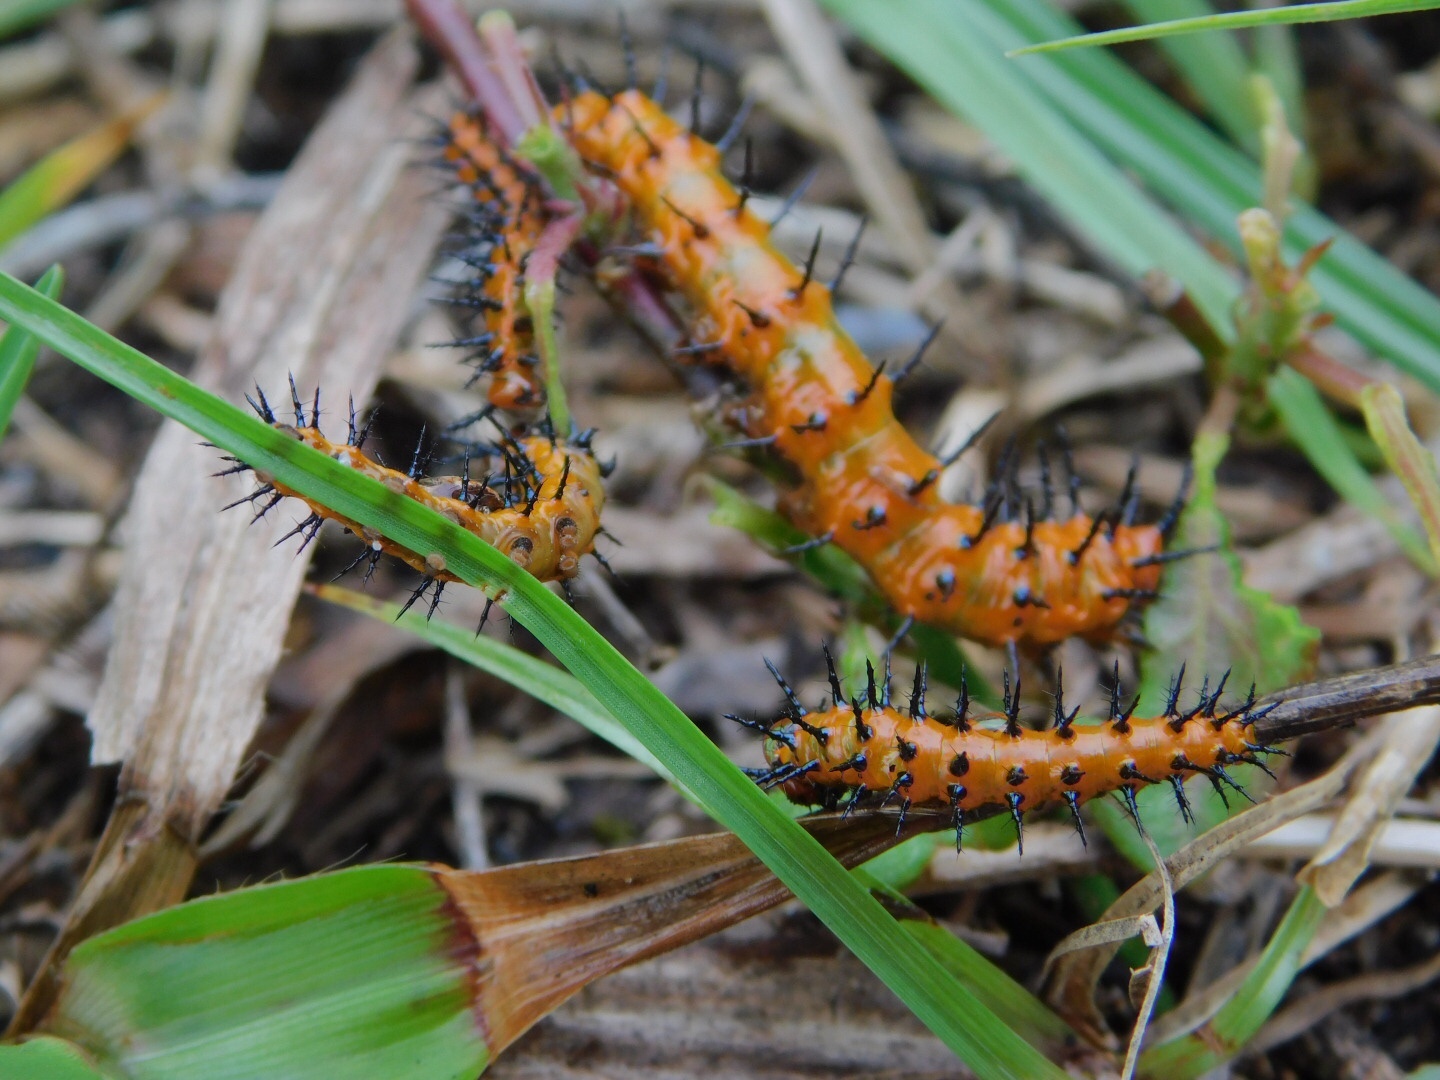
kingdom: Animalia
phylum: Arthropoda
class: Insecta
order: Lepidoptera
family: Nymphalidae
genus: Dione
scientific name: Dione vanillae
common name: Gulf fritillary
